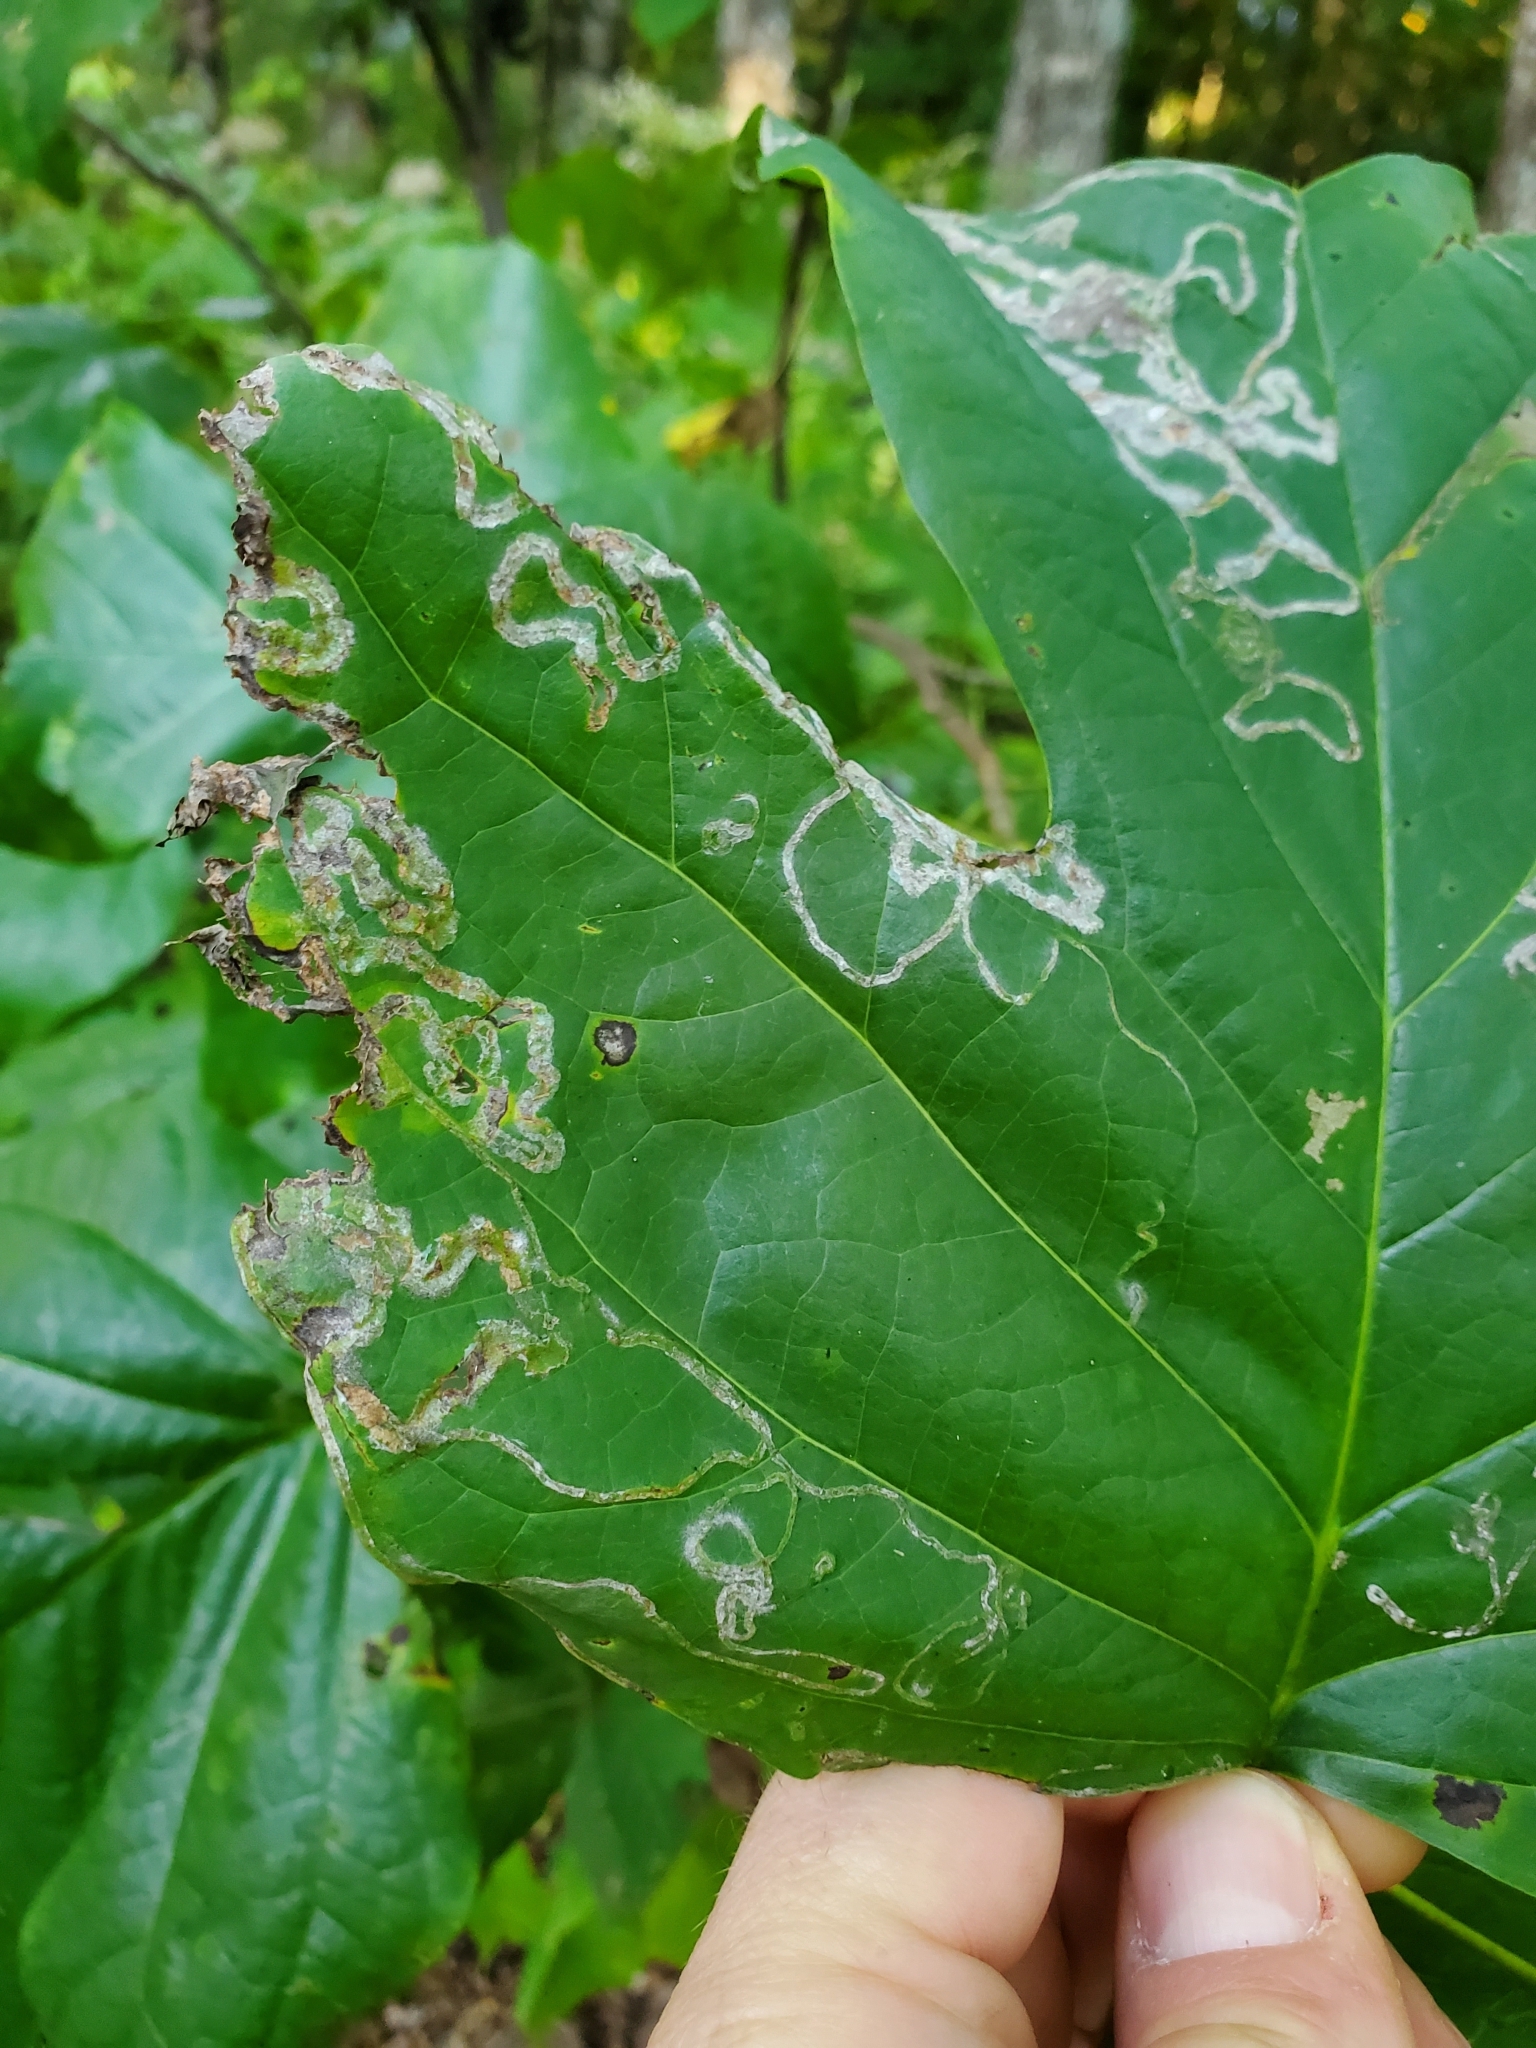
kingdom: Animalia
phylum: Arthropoda
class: Insecta
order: Lepidoptera
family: Gracillariidae
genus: Phyllocnistis
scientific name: Phyllocnistis liriodendronella
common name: Tulip tree leaf miner
